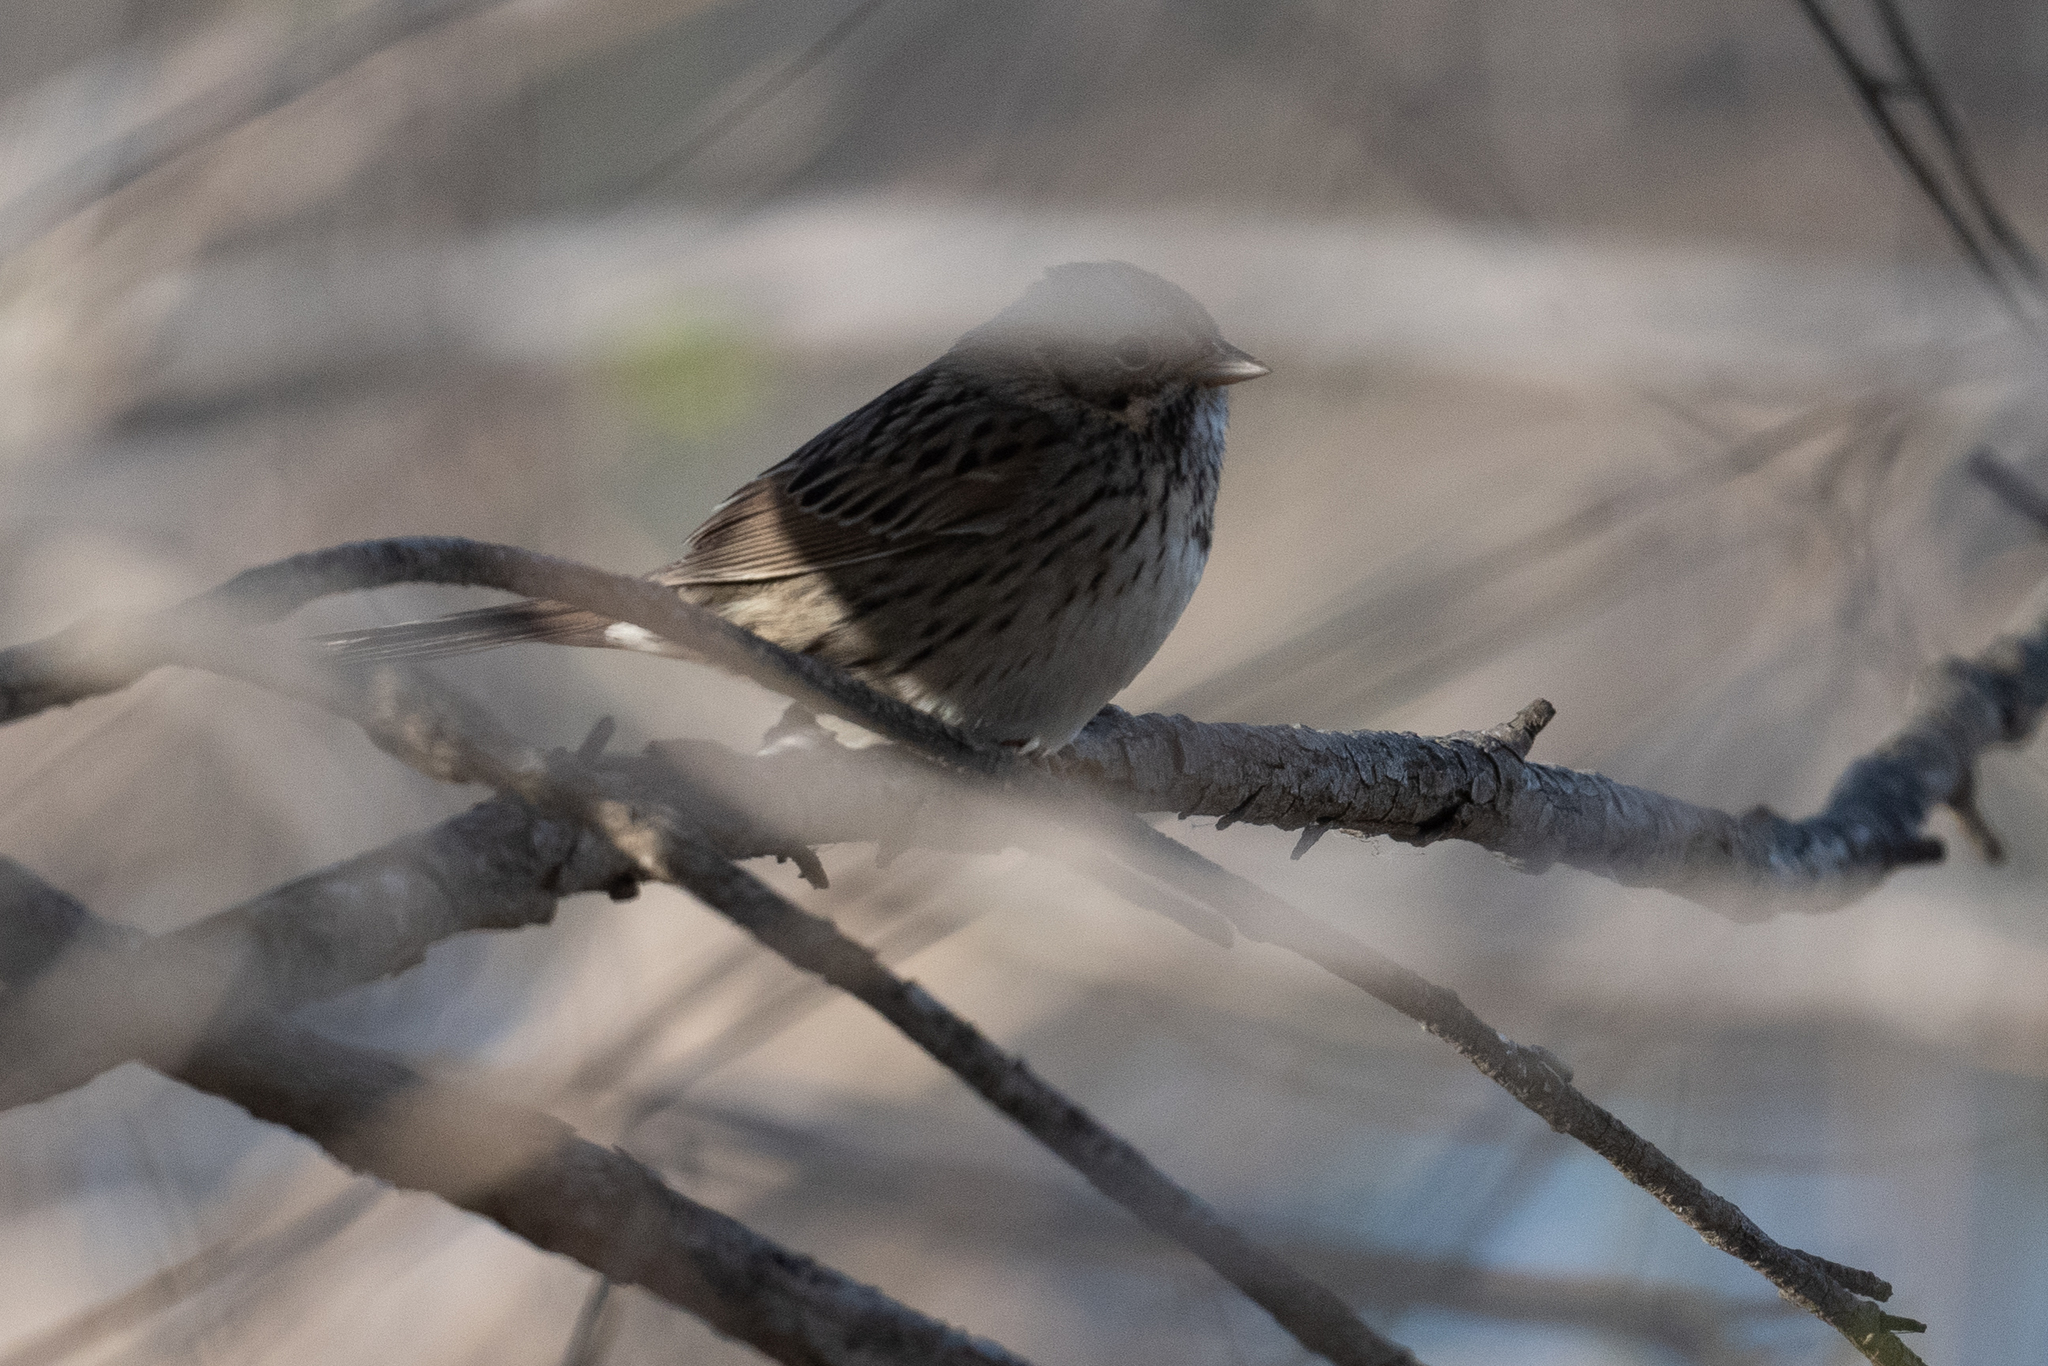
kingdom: Animalia
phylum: Chordata
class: Aves
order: Passeriformes
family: Passerellidae
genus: Melospiza
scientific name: Melospiza lincolnii
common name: Lincoln's sparrow
